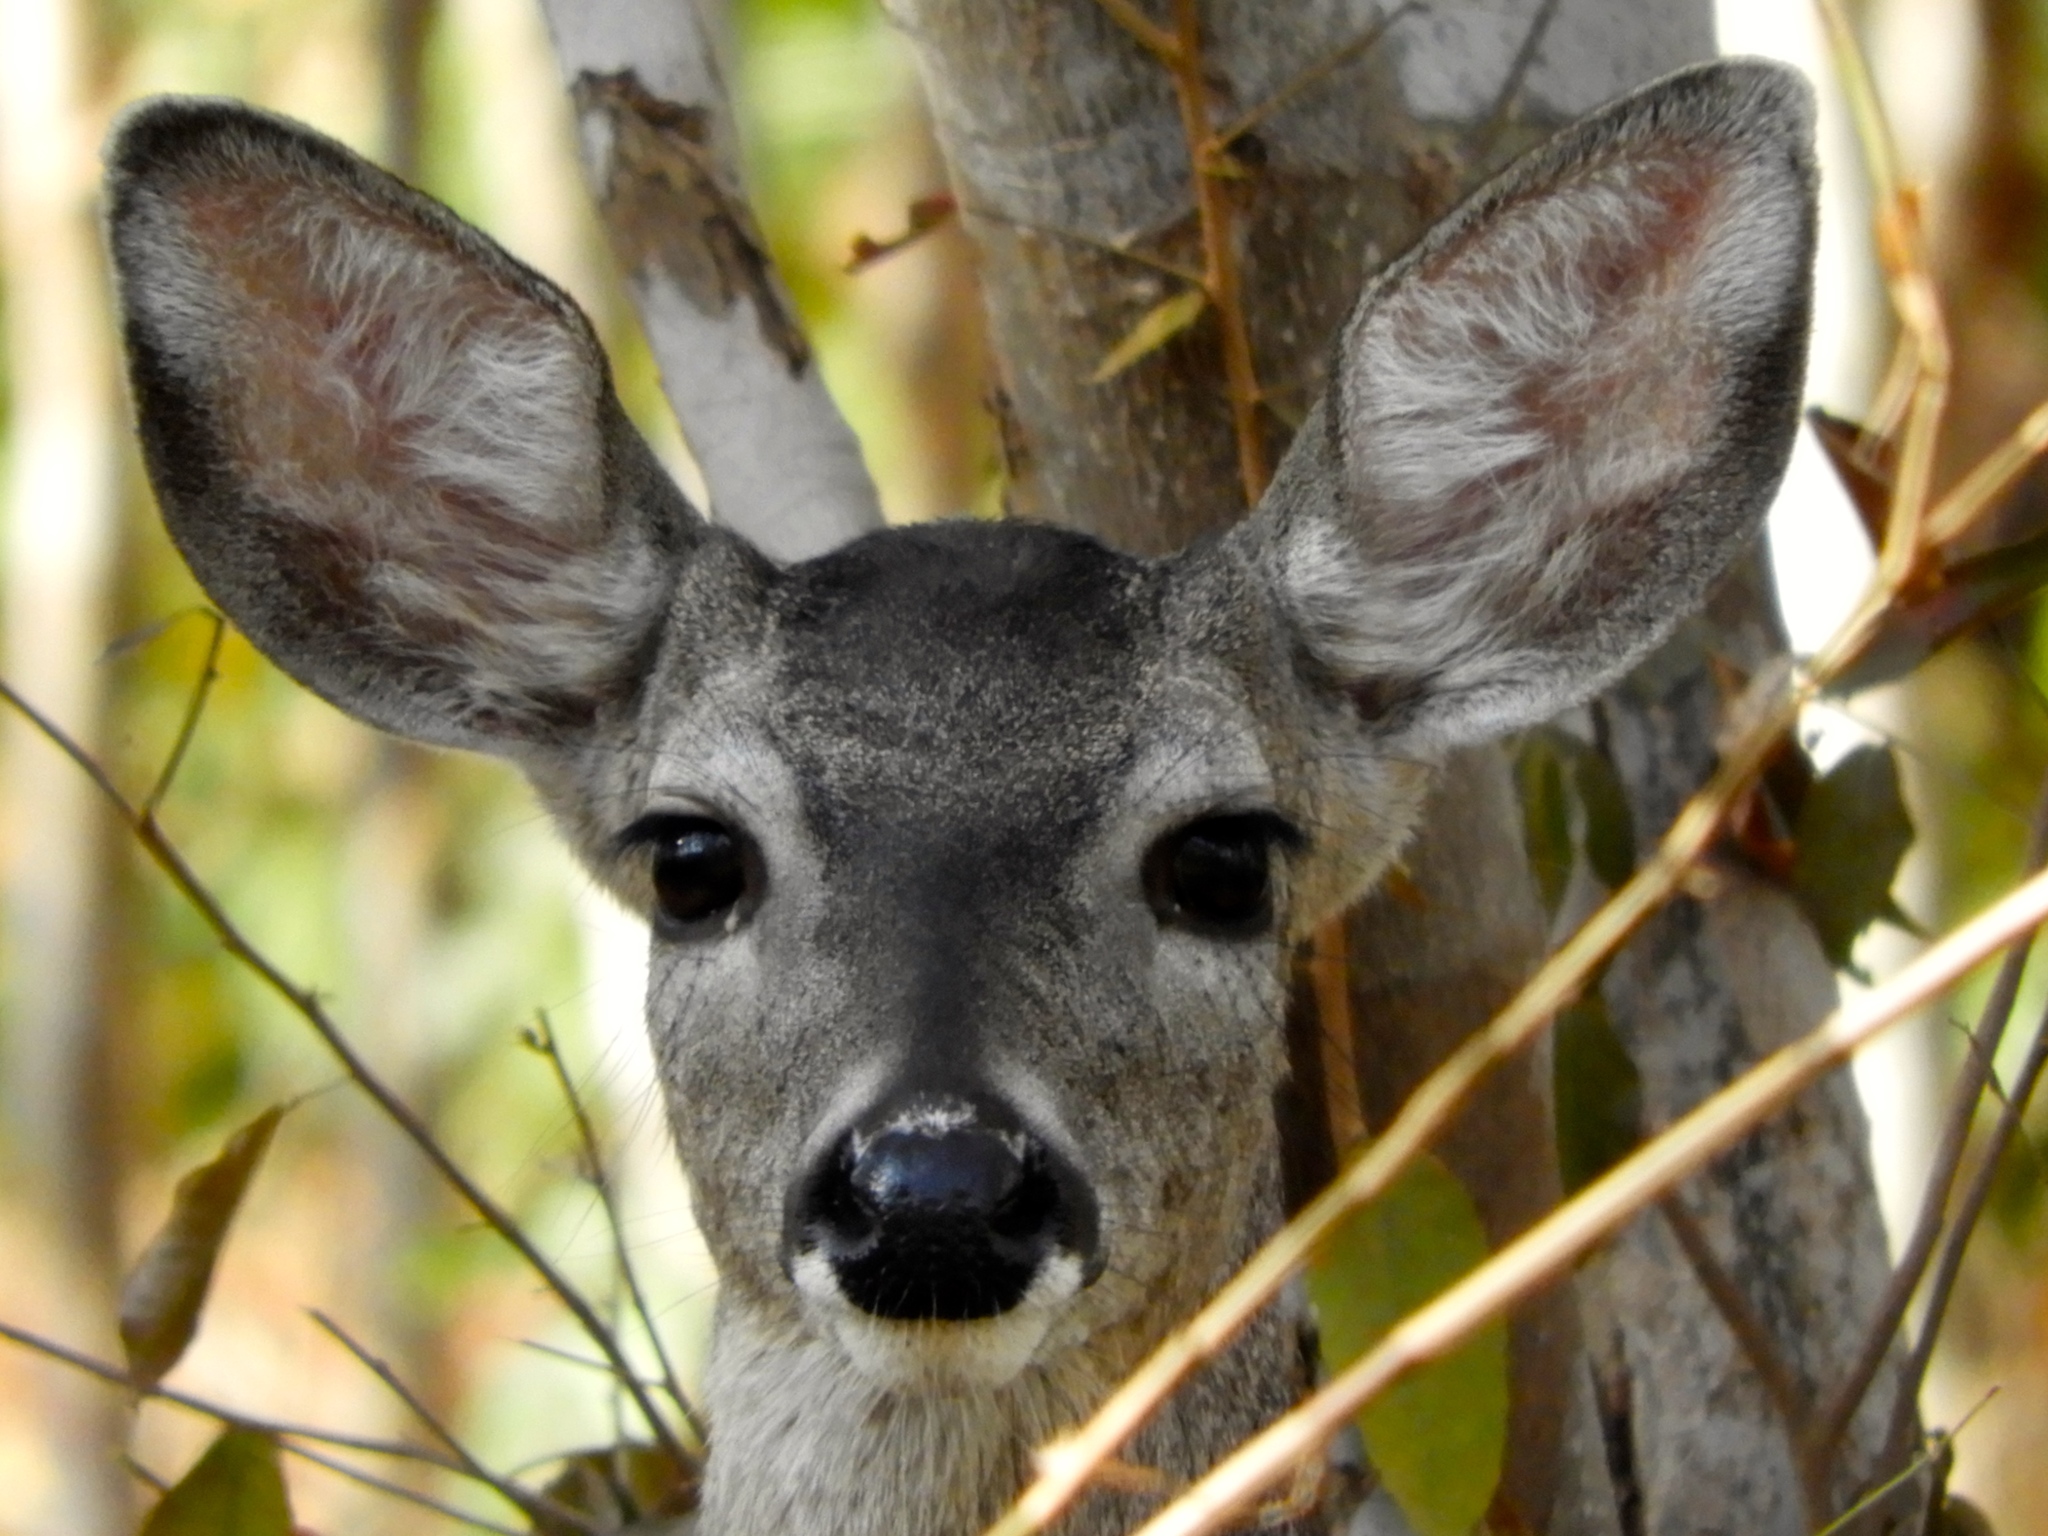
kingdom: Animalia
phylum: Chordata
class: Mammalia
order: Artiodactyla
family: Cervidae
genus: Odocoileus
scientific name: Odocoileus virginianus
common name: White-tailed deer
